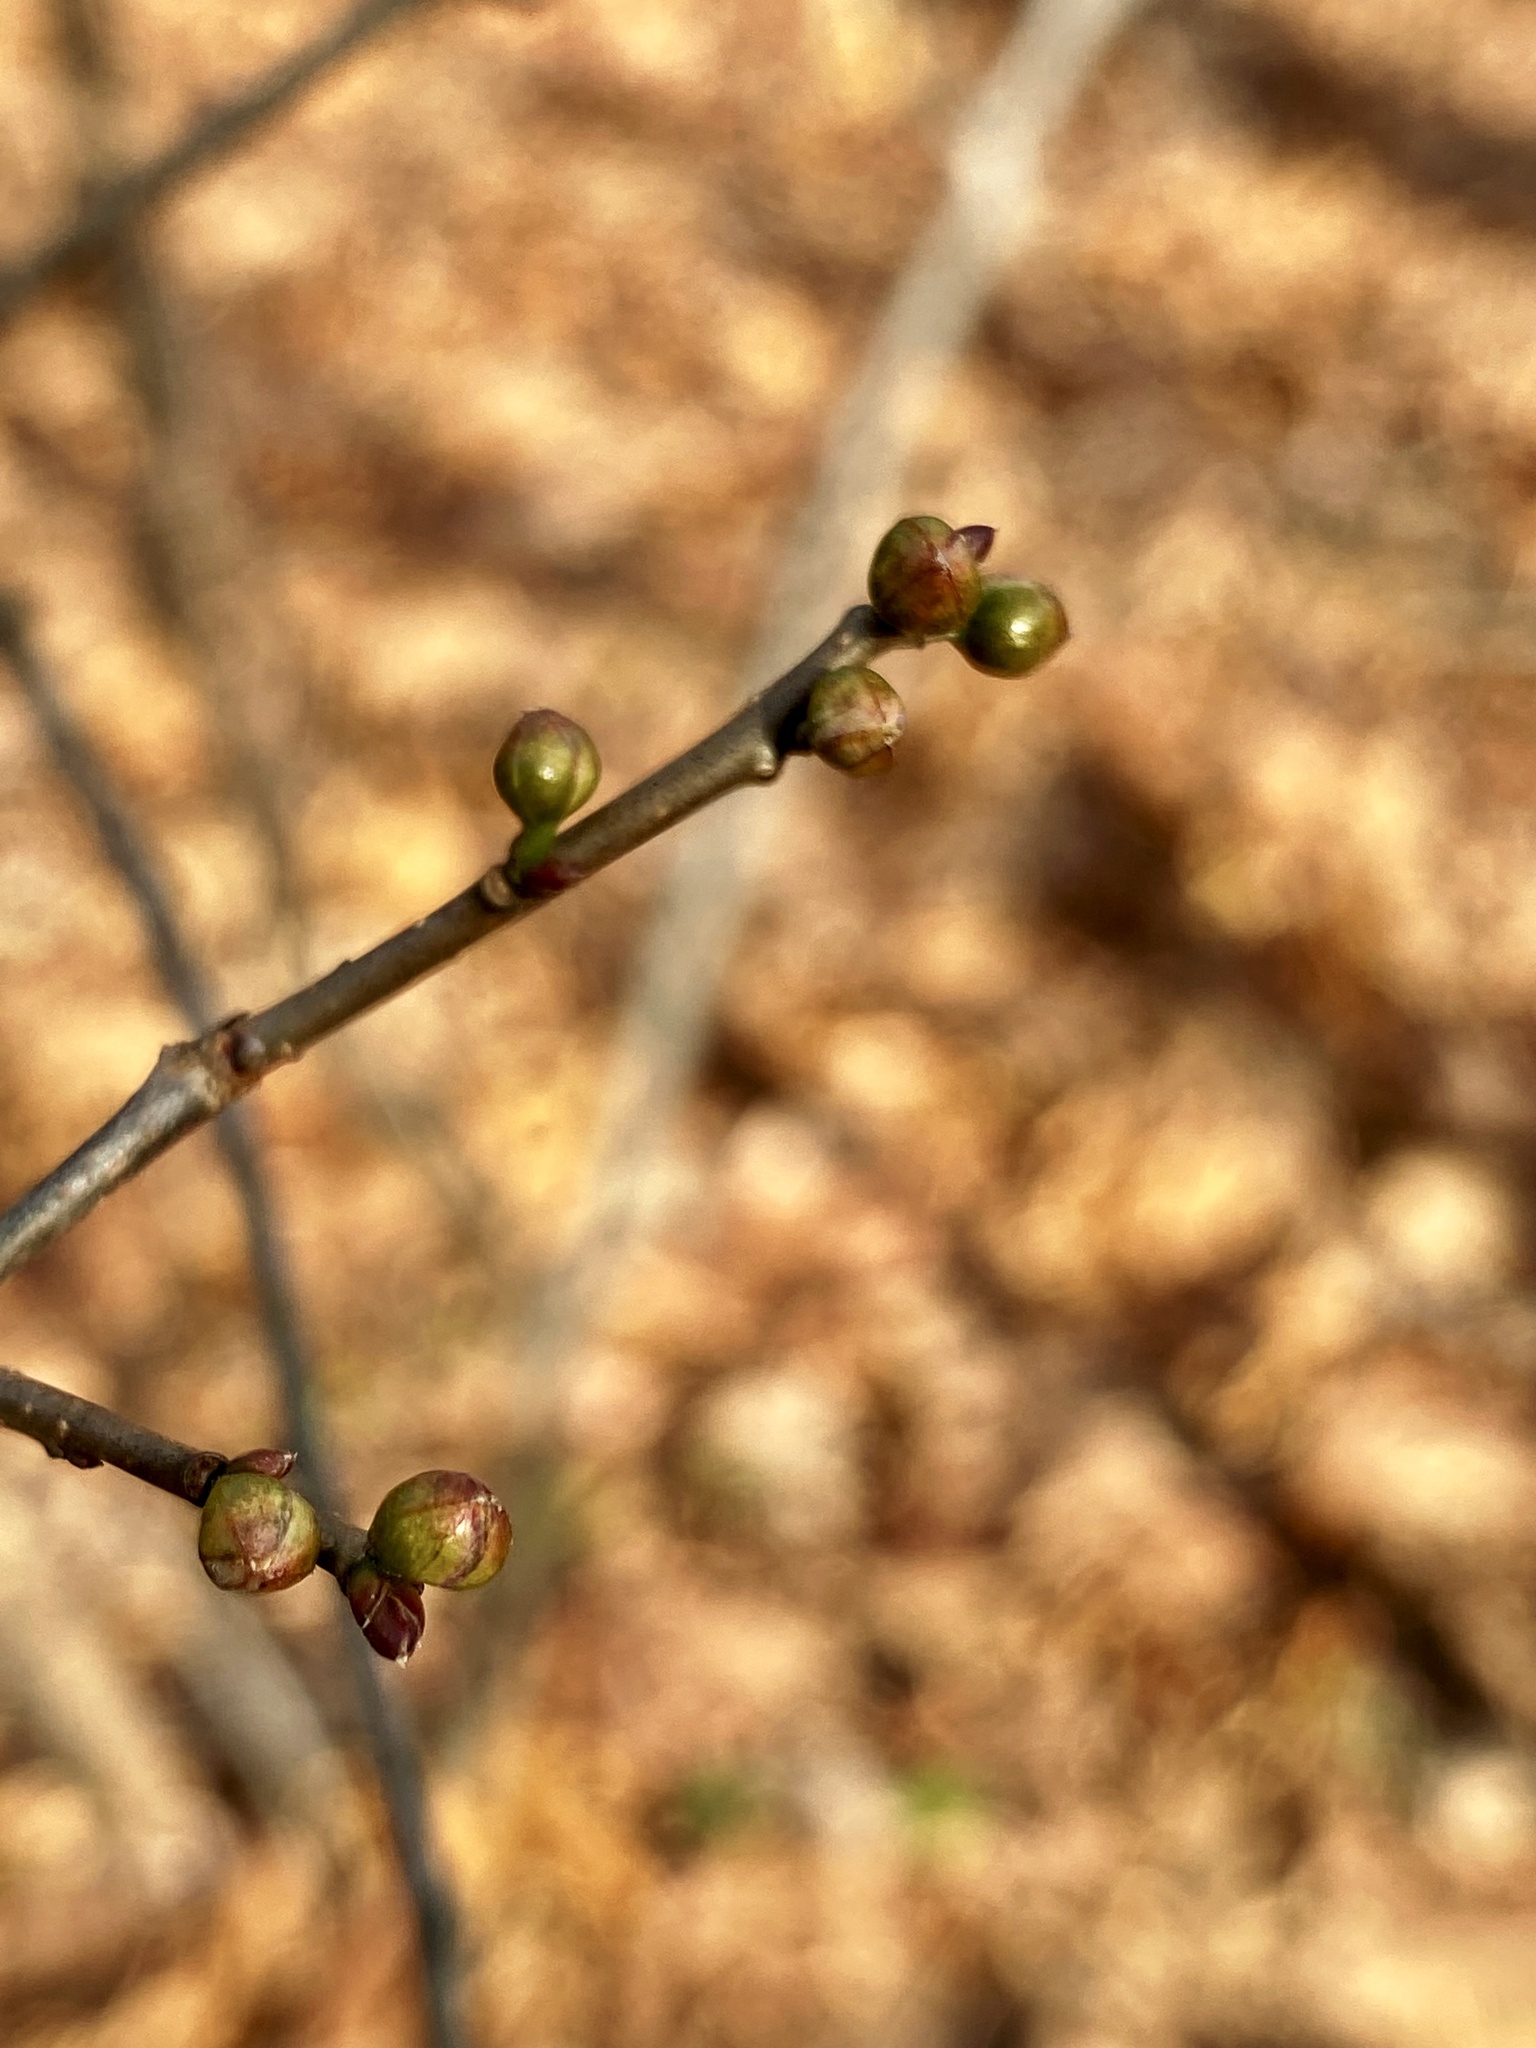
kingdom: Plantae
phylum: Tracheophyta
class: Magnoliopsida
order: Laurales
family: Lauraceae
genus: Lindera
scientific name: Lindera benzoin
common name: Spicebush
